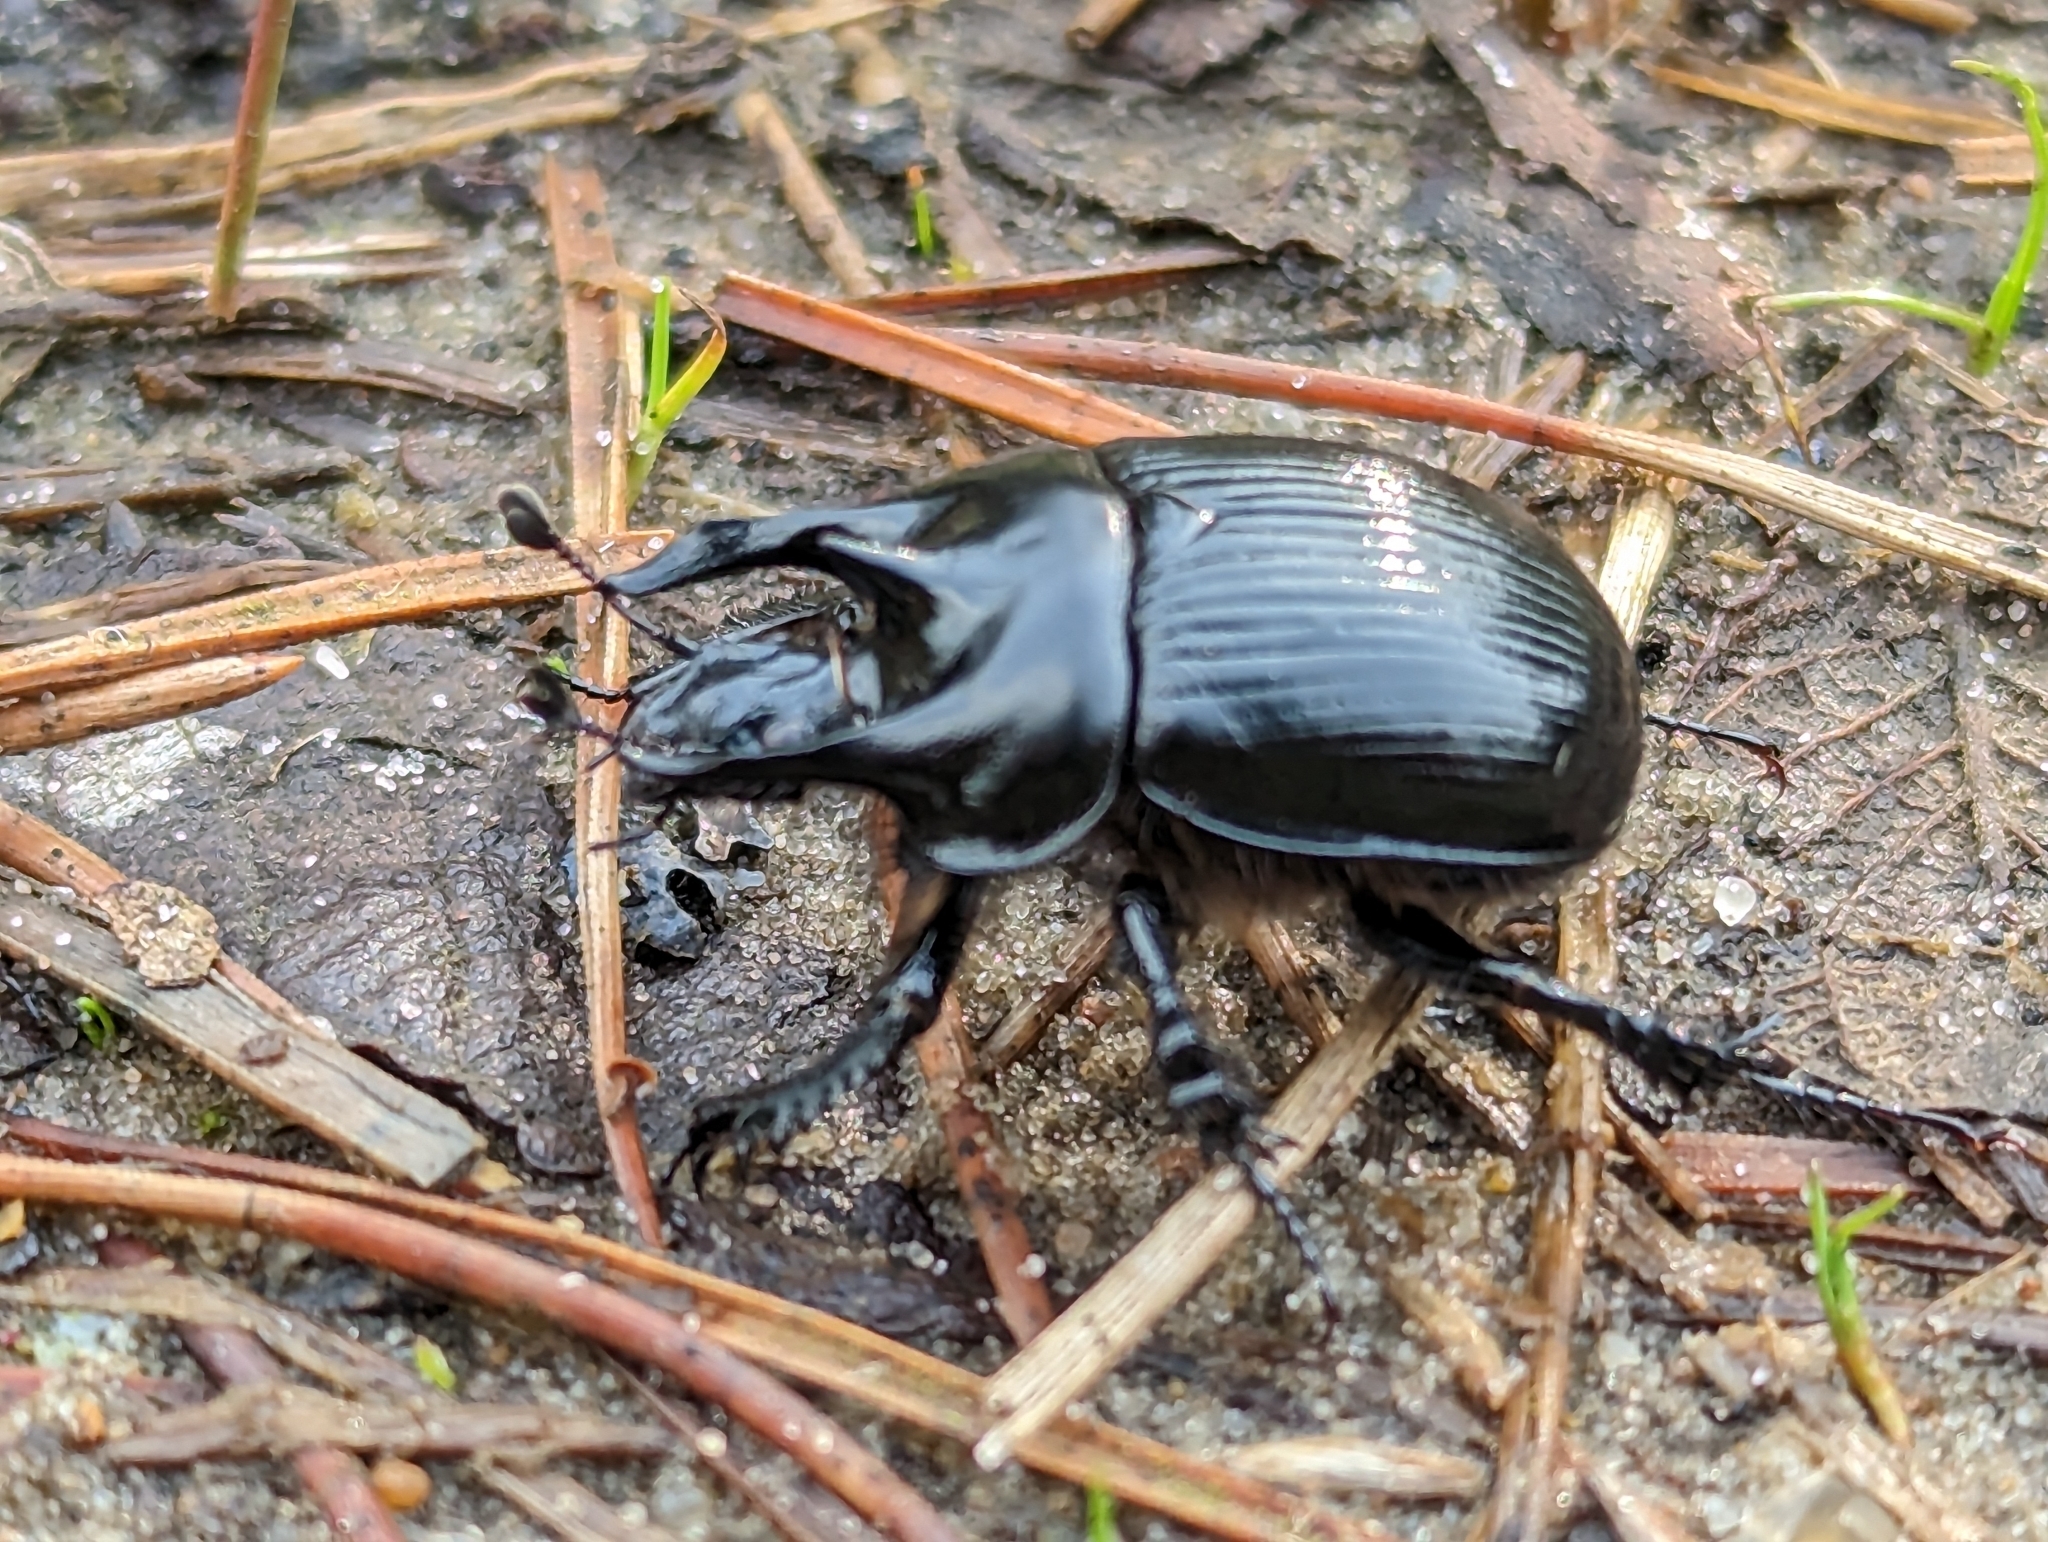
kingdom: Animalia
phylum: Arthropoda
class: Insecta
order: Coleoptera
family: Geotrupidae
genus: Typhaeus
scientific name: Typhaeus typhoeus
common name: Minotaur beetle
